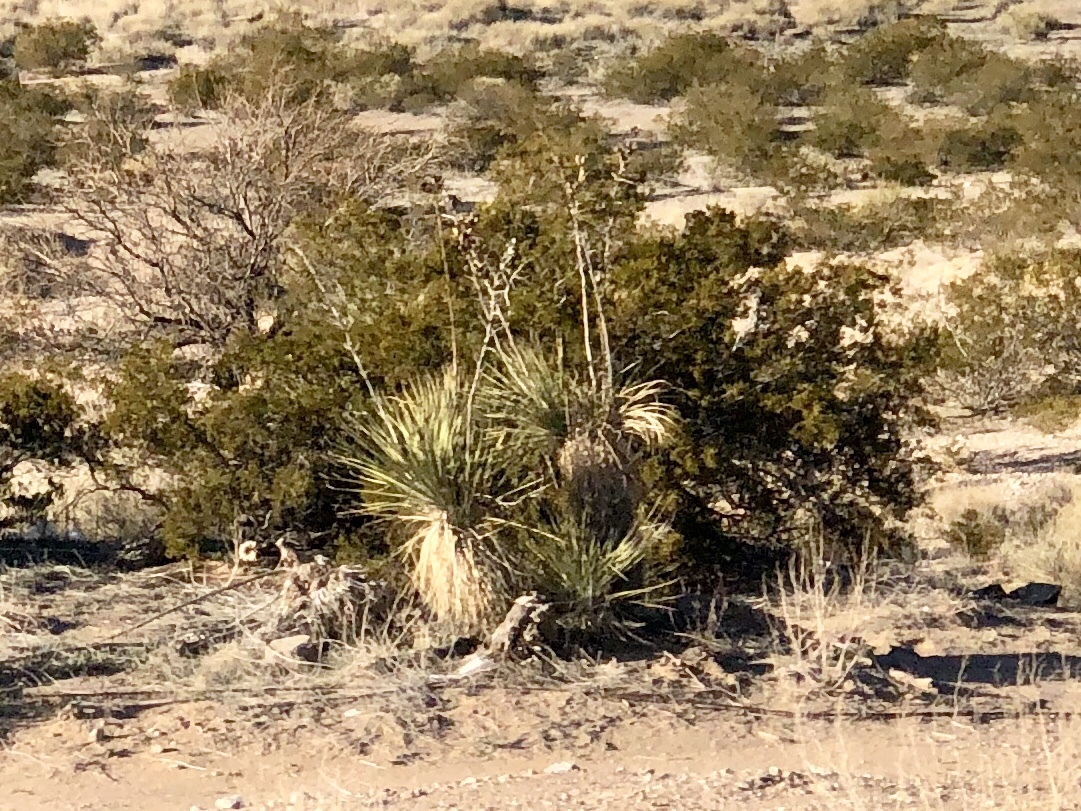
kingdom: Plantae
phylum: Tracheophyta
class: Liliopsida
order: Asparagales
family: Asparagaceae
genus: Yucca
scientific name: Yucca elata
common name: Palmella
